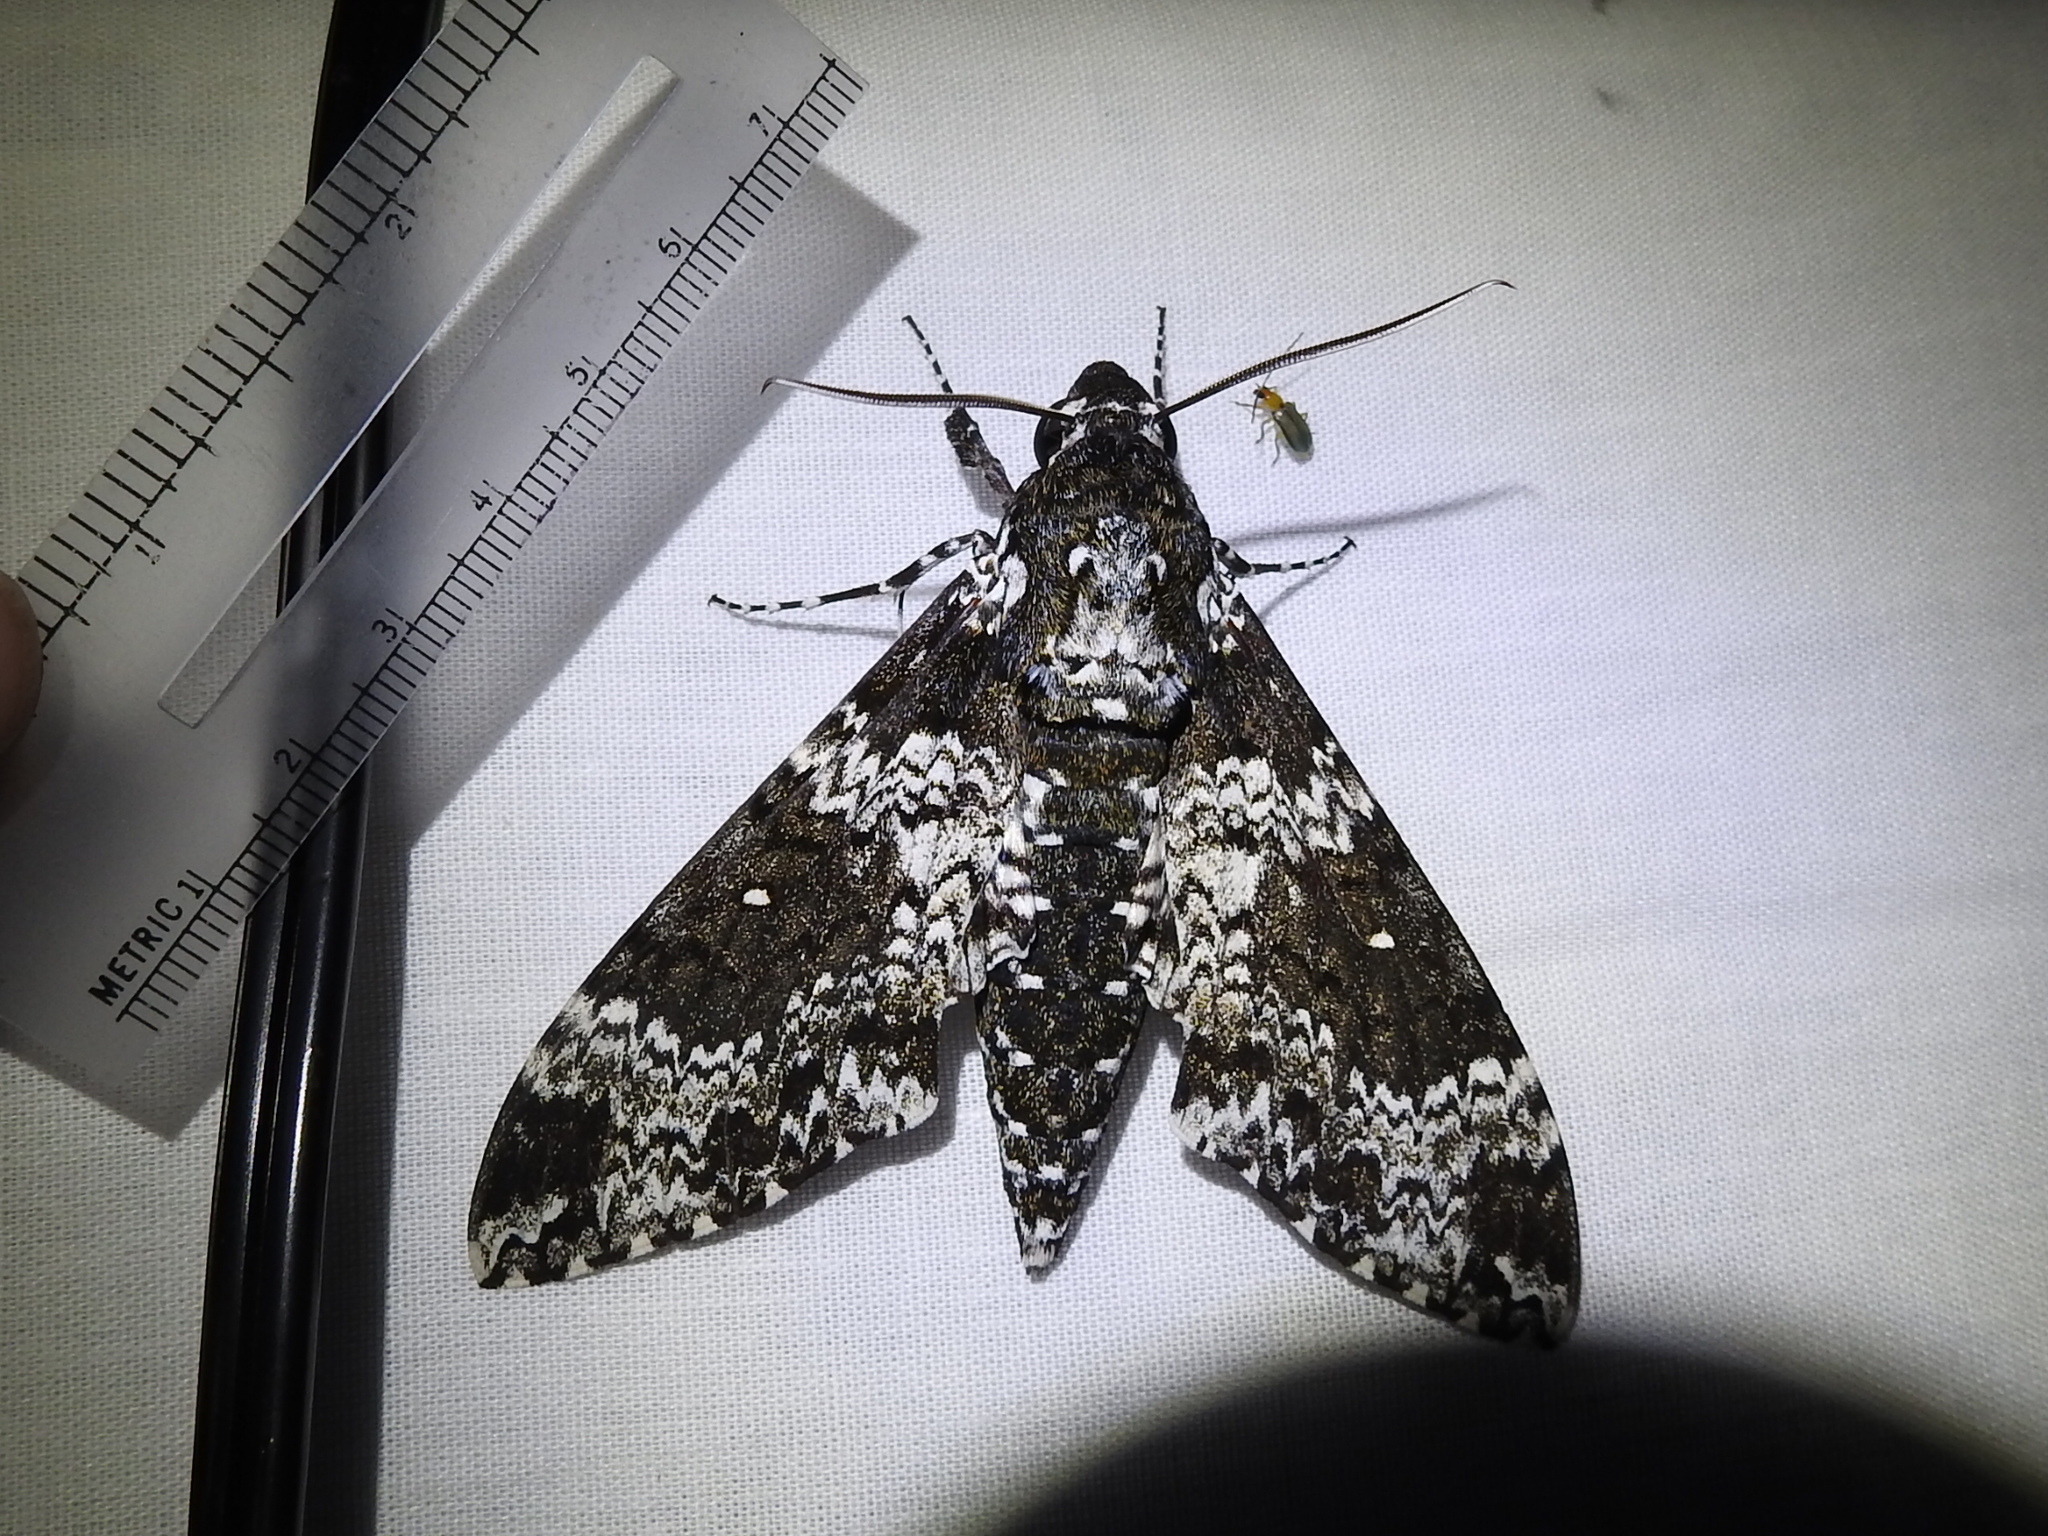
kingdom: Animalia
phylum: Arthropoda
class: Insecta
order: Lepidoptera
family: Sphingidae
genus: Manduca
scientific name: Manduca rustica
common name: Rustic sphinx
